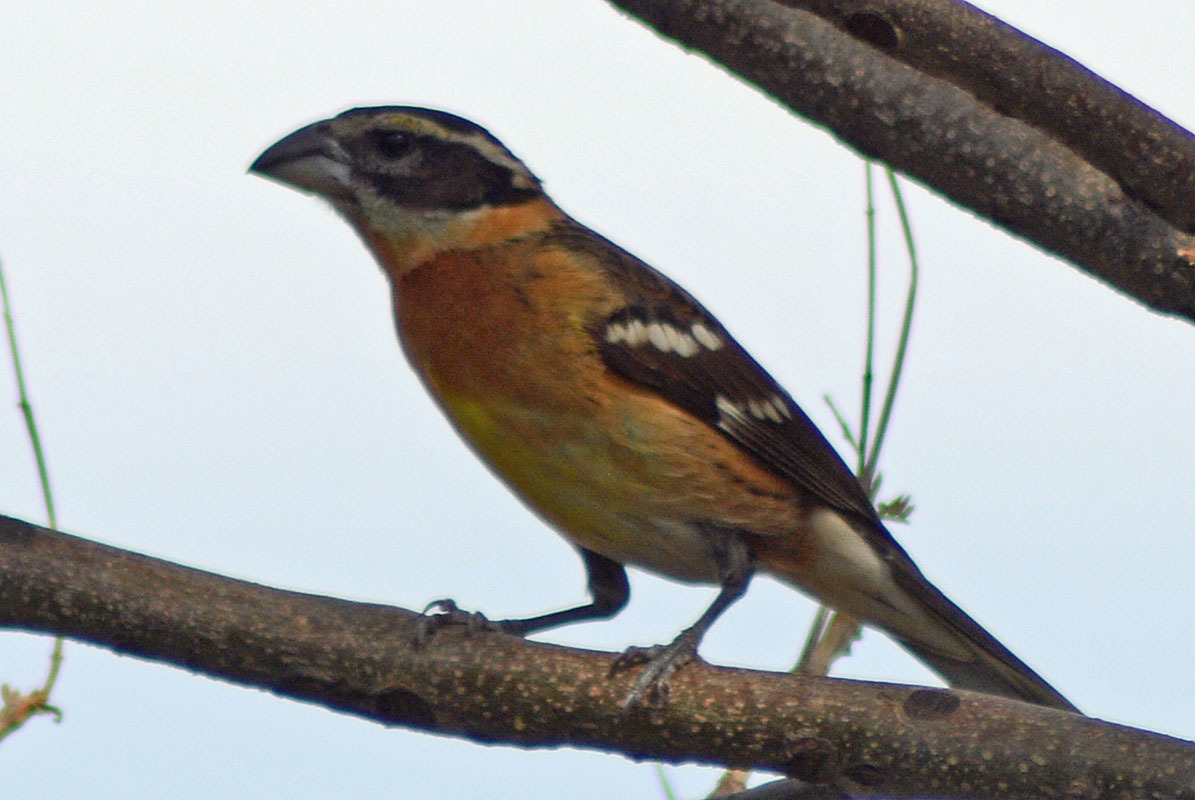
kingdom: Animalia
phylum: Chordata
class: Aves
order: Passeriformes
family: Cardinalidae
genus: Pheucticus
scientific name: Pheucticus melanocephalus
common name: Black-headed grosbeak
